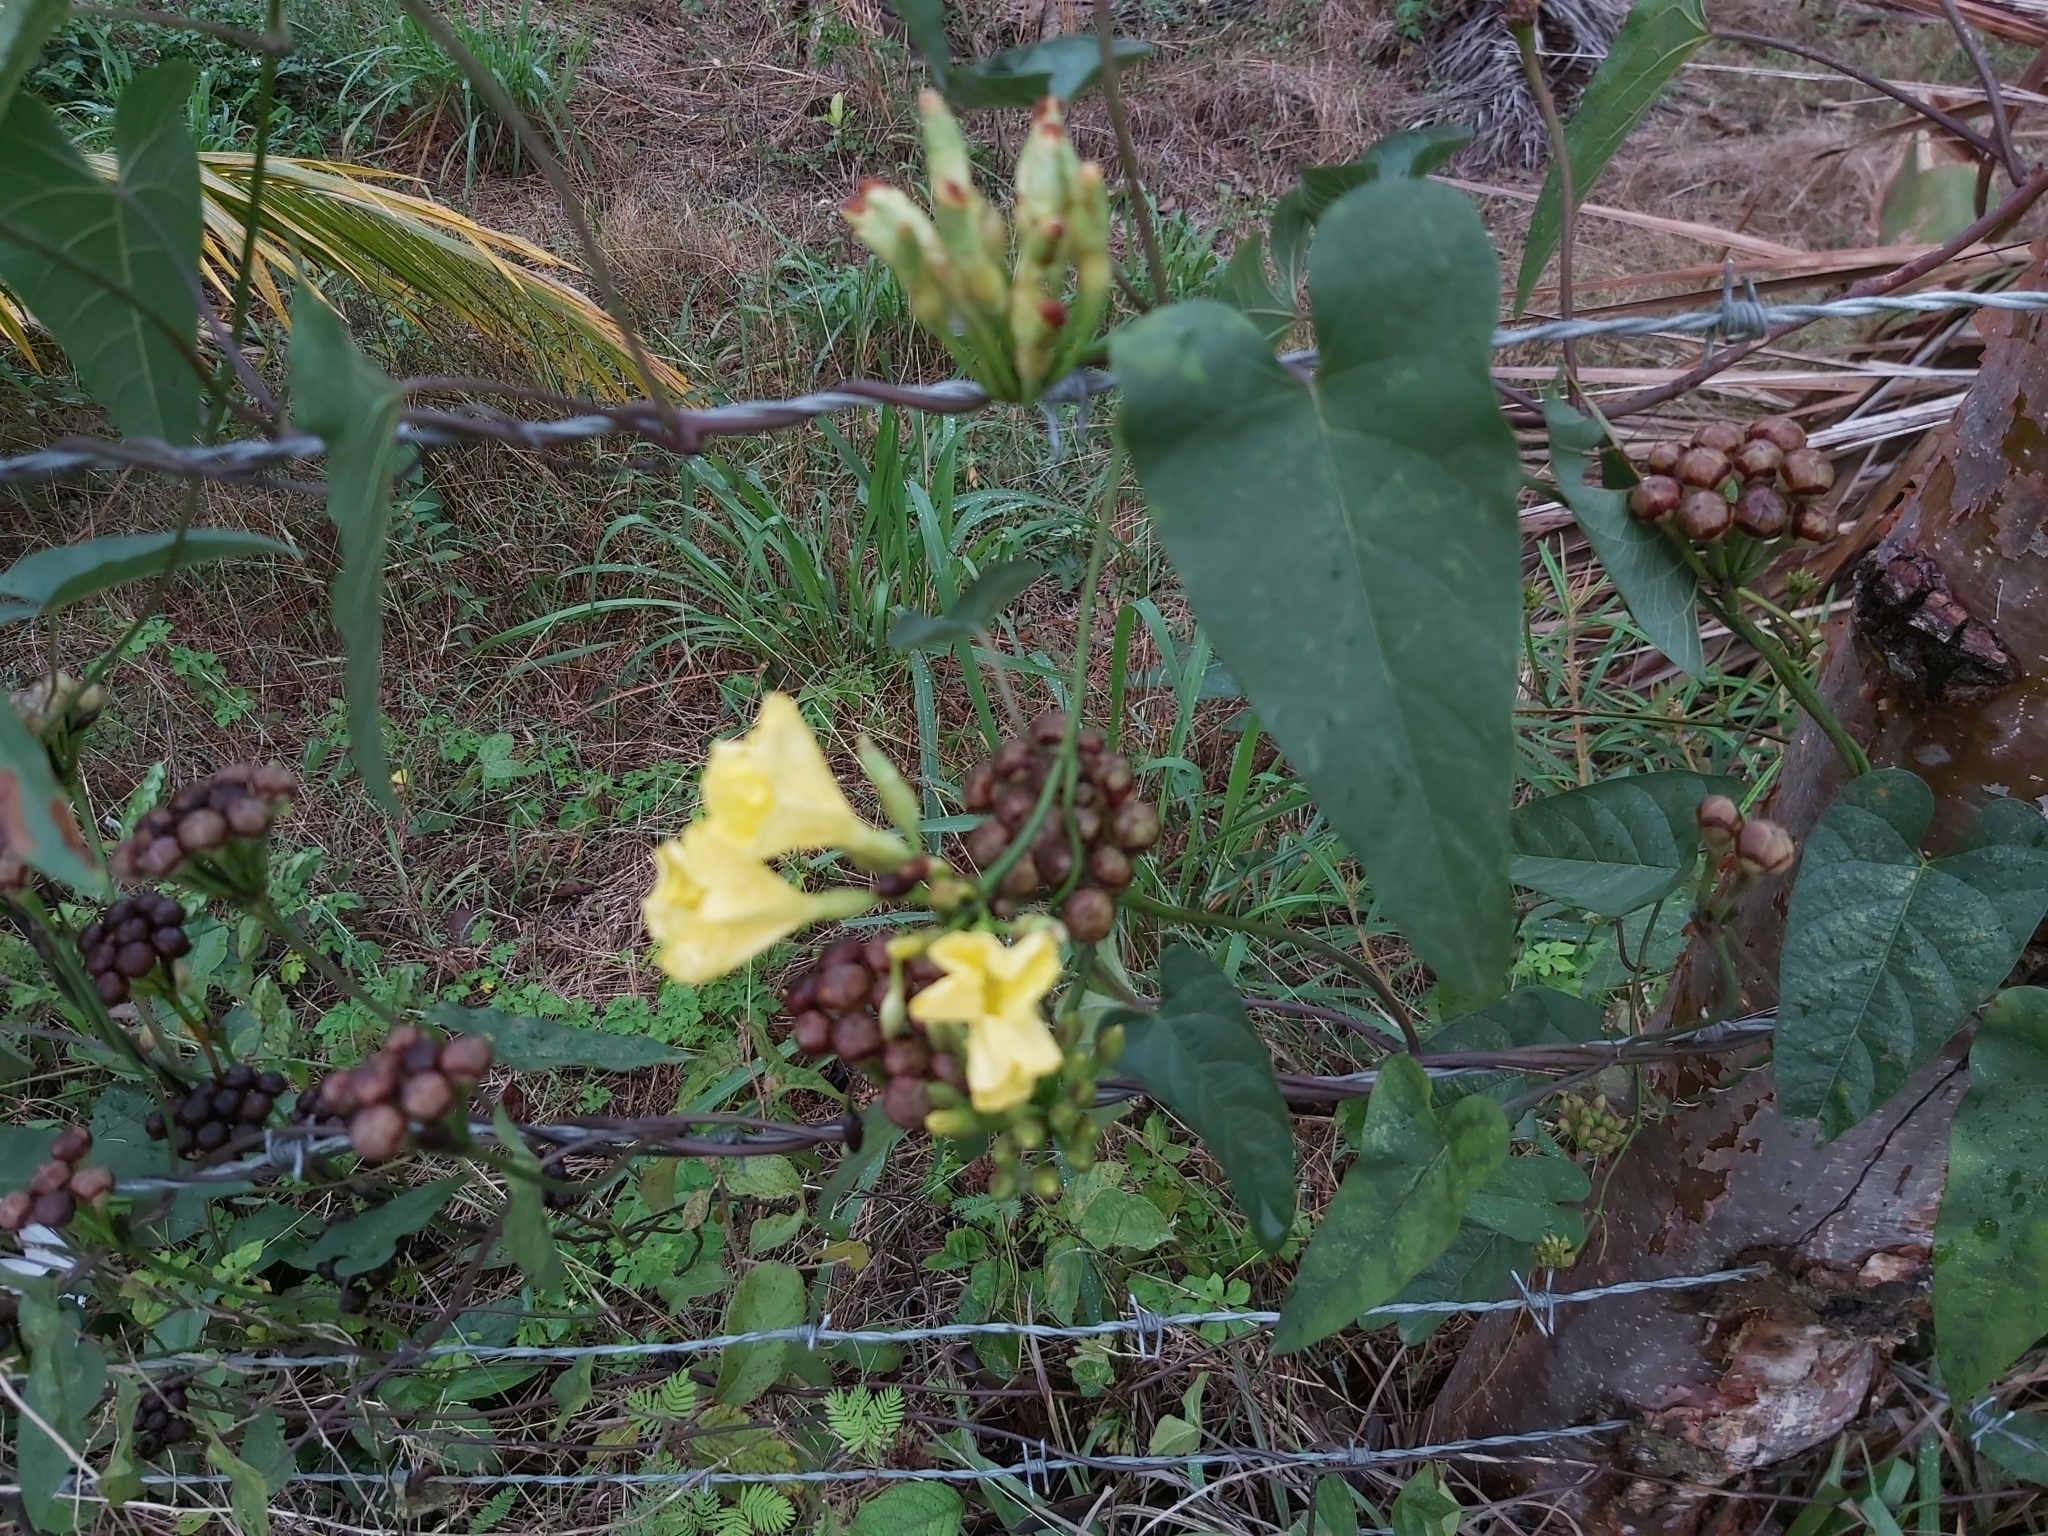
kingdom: Plantae
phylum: Tracheophyta
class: Magnoliopsida
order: Solanales
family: Convolvulaceae
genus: Camonea
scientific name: Camonea umbellata
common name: Hogvine
